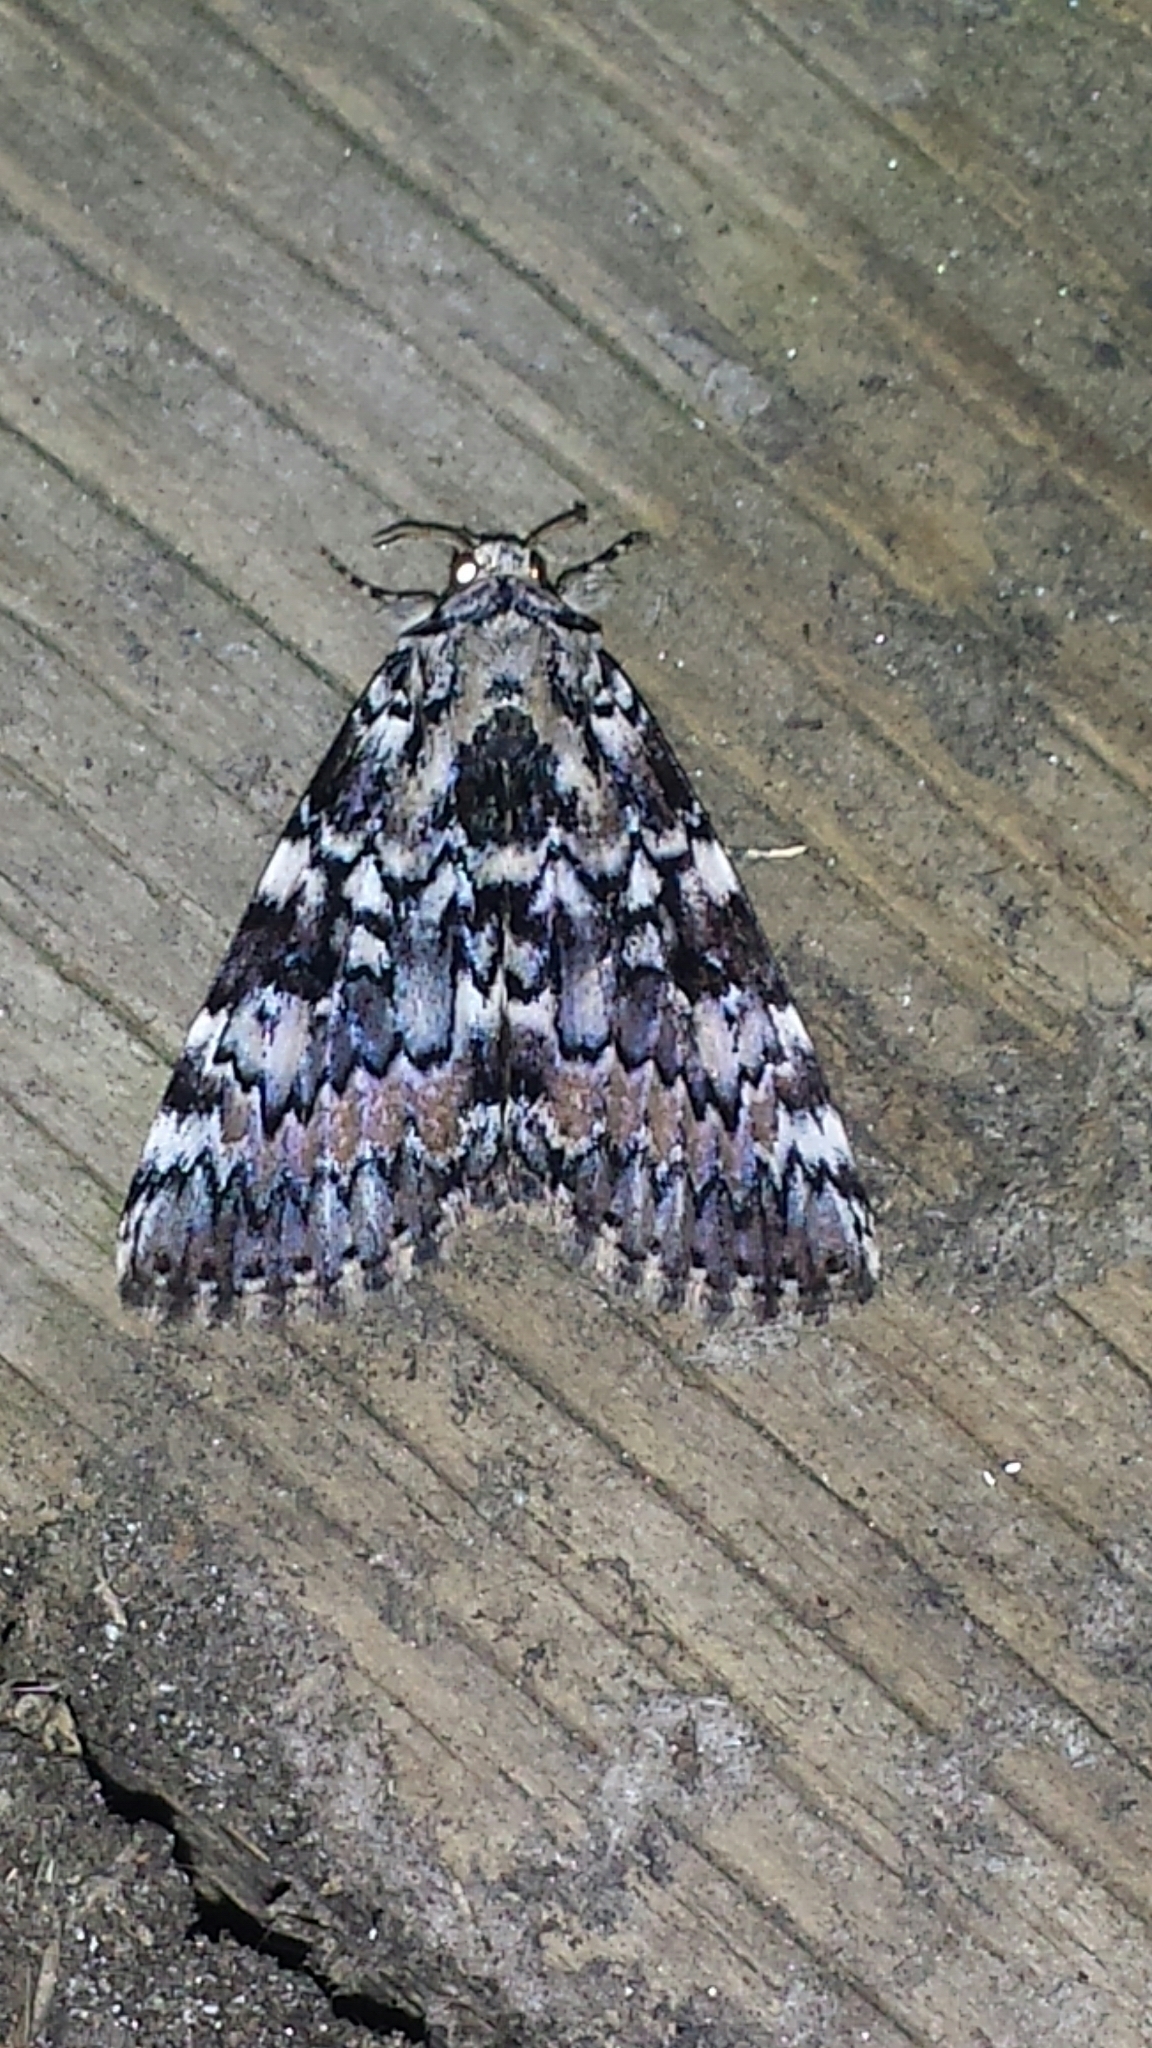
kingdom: Animalia
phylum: Arthropoda
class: Insecta
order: Lepidoptera
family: Erebidae
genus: Catocala
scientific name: Catocala connubialis
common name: Connubial underwing
